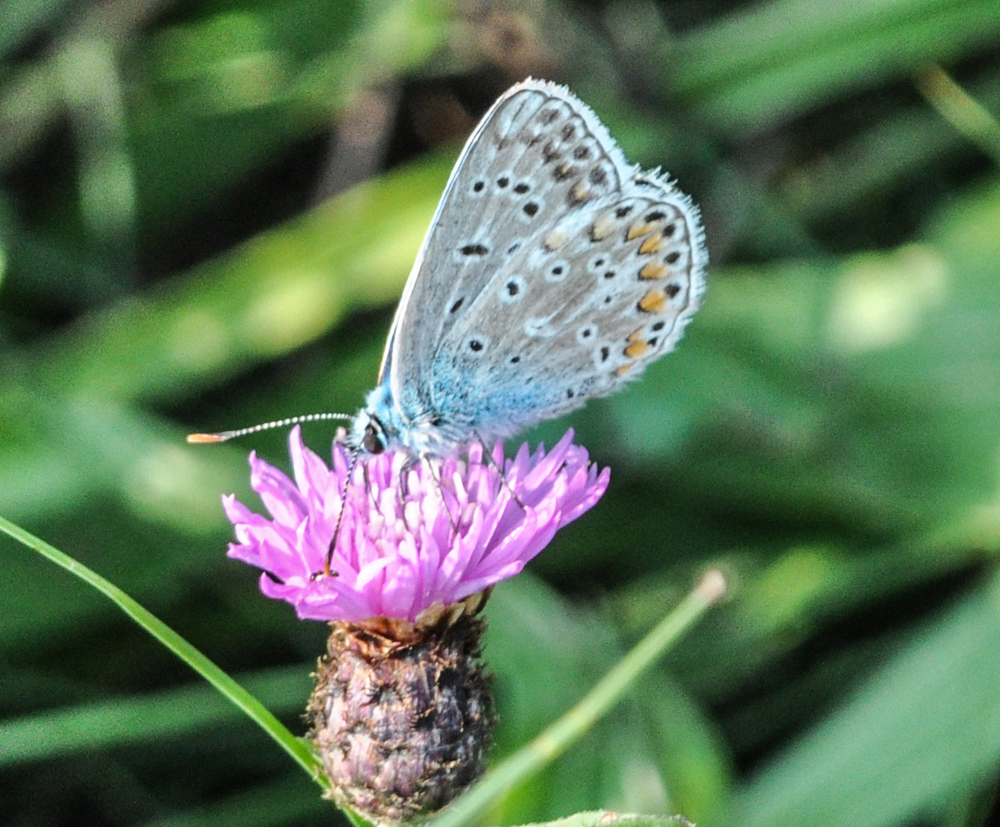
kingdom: Animalia
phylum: Arthropoda
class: Insecta
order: Lepidoptera
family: Lycaenidae
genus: Polyommatus
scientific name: Polyommatus icarus
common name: Common blue
